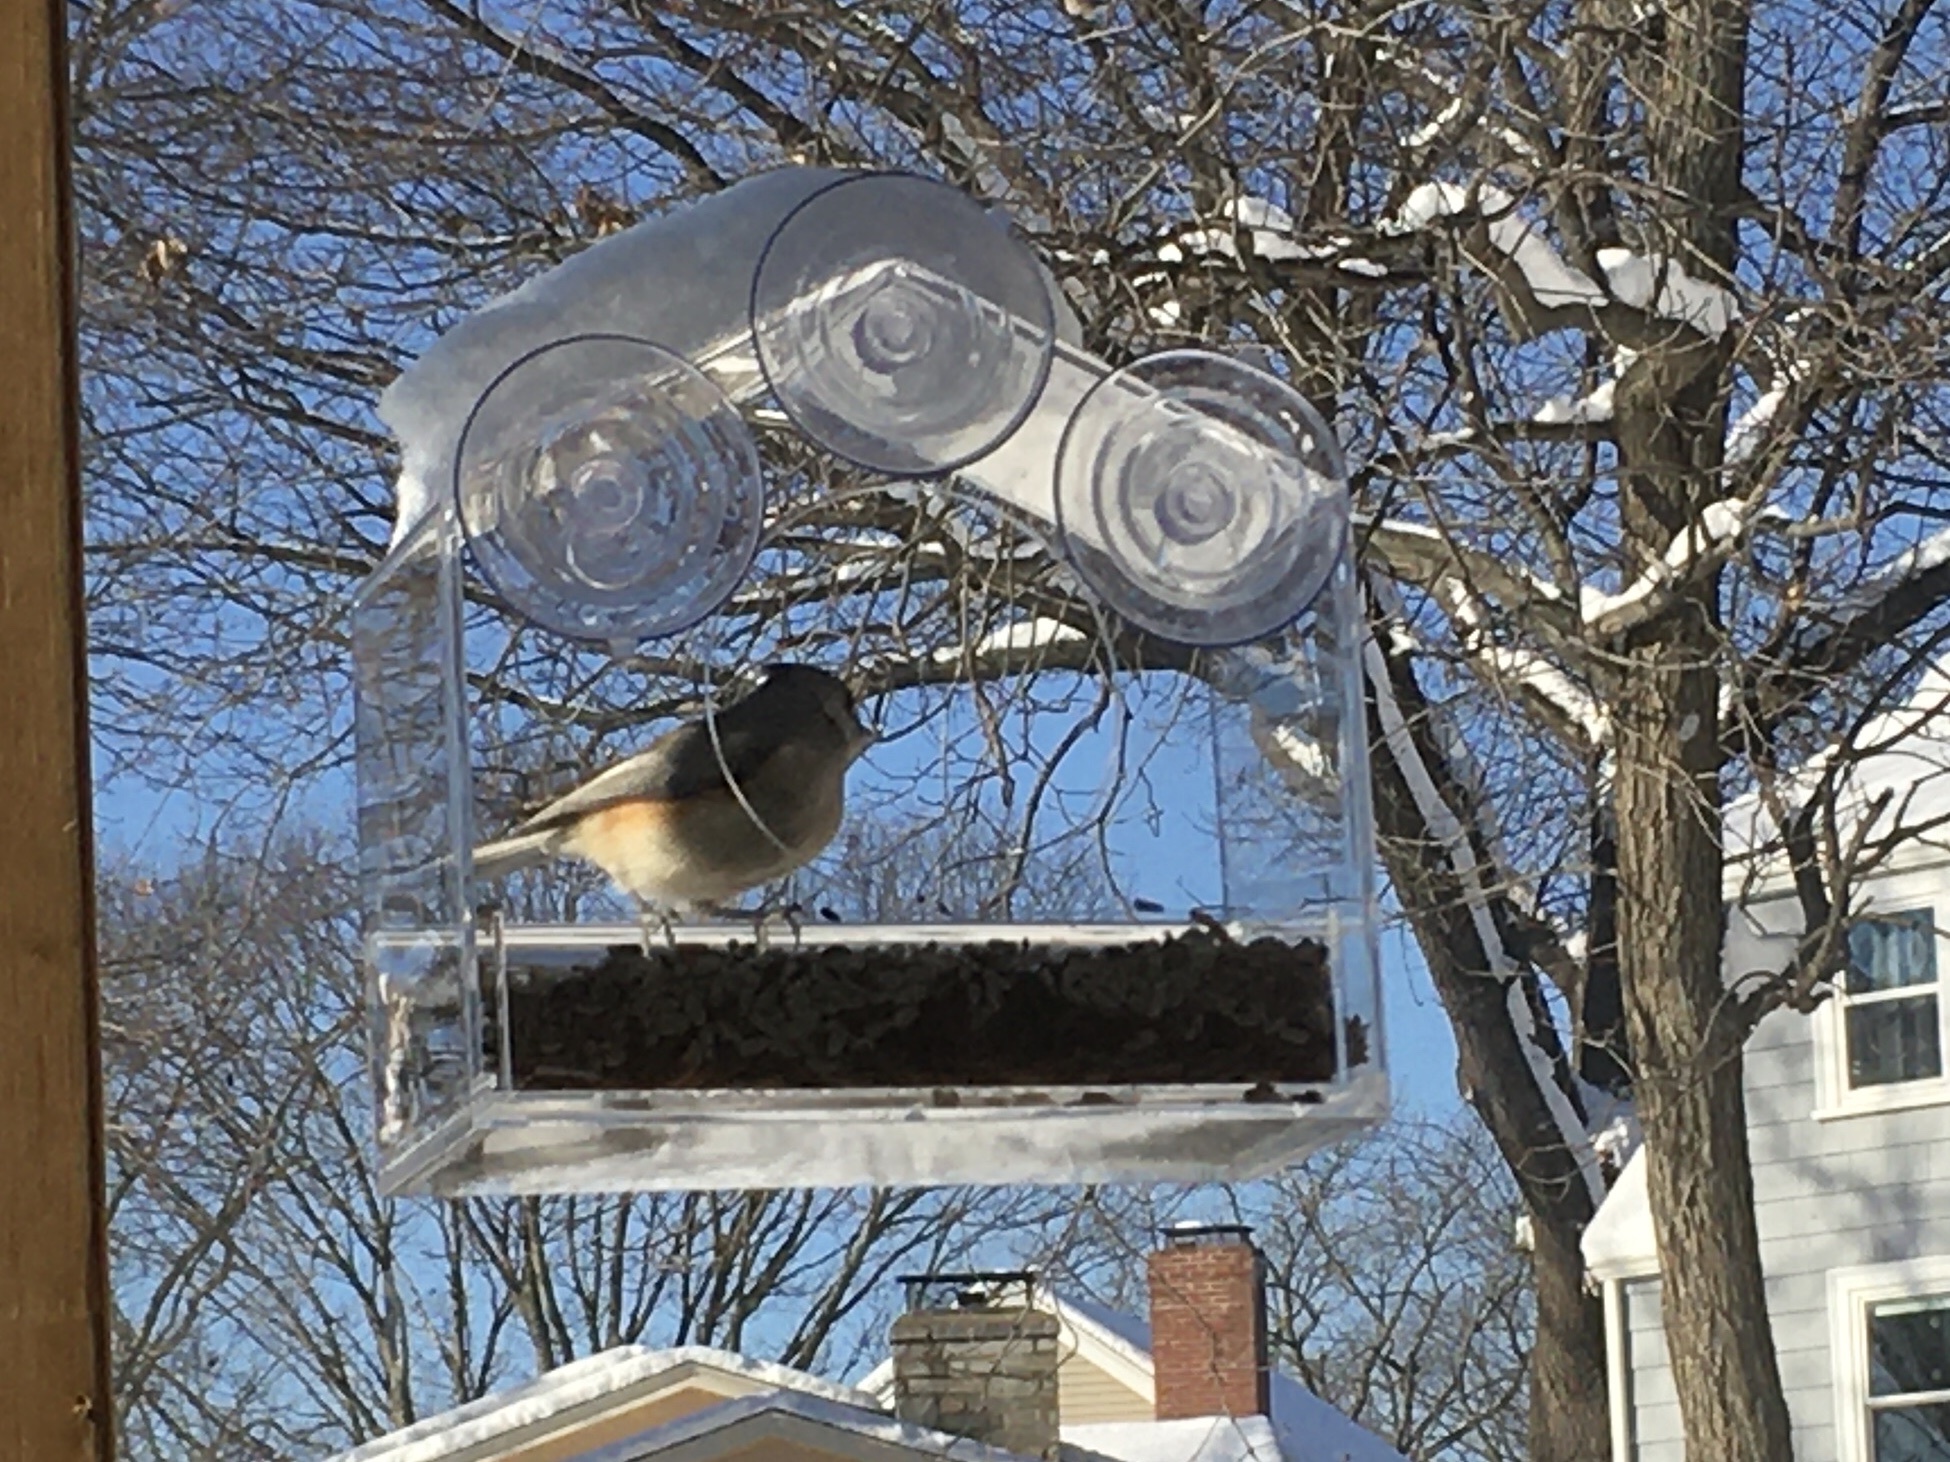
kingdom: Animalia
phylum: Chordata
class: Aves
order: Passeriformes
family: Paridae
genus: Baeolophus
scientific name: Baeolophus bicolor
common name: Tufted titmouse
